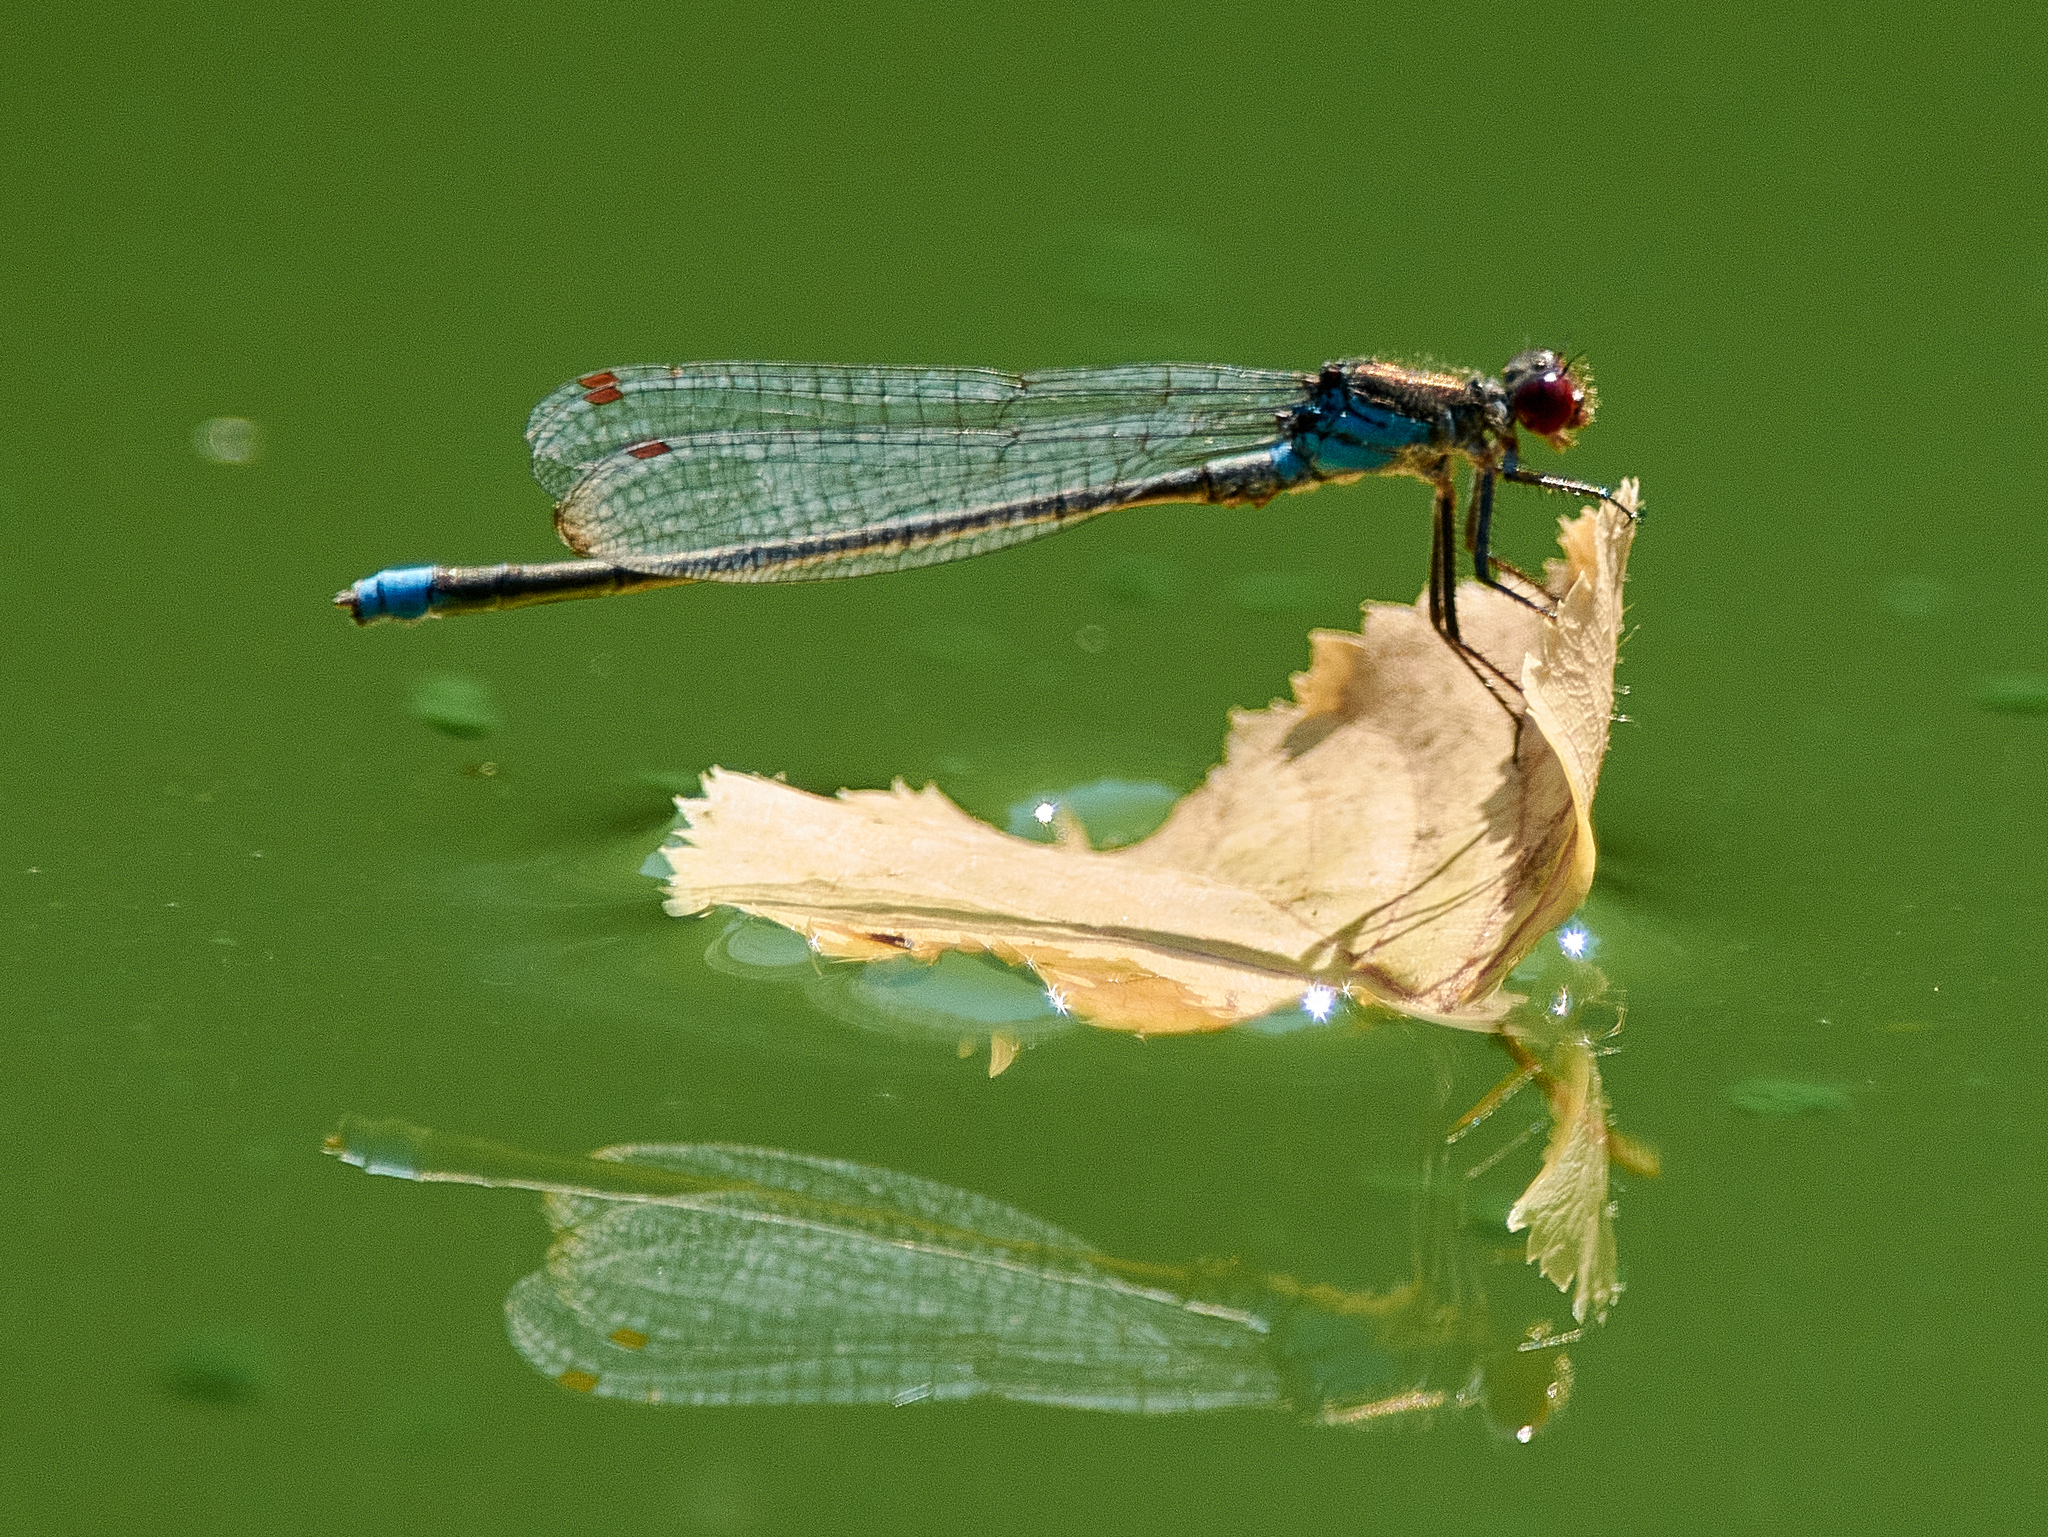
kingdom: Animalia
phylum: Arthropoda
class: Insecta
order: Odonata
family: Coenagrionidae
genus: Erythromma
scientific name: Erythromma najas
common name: Red-eyed damselfly
